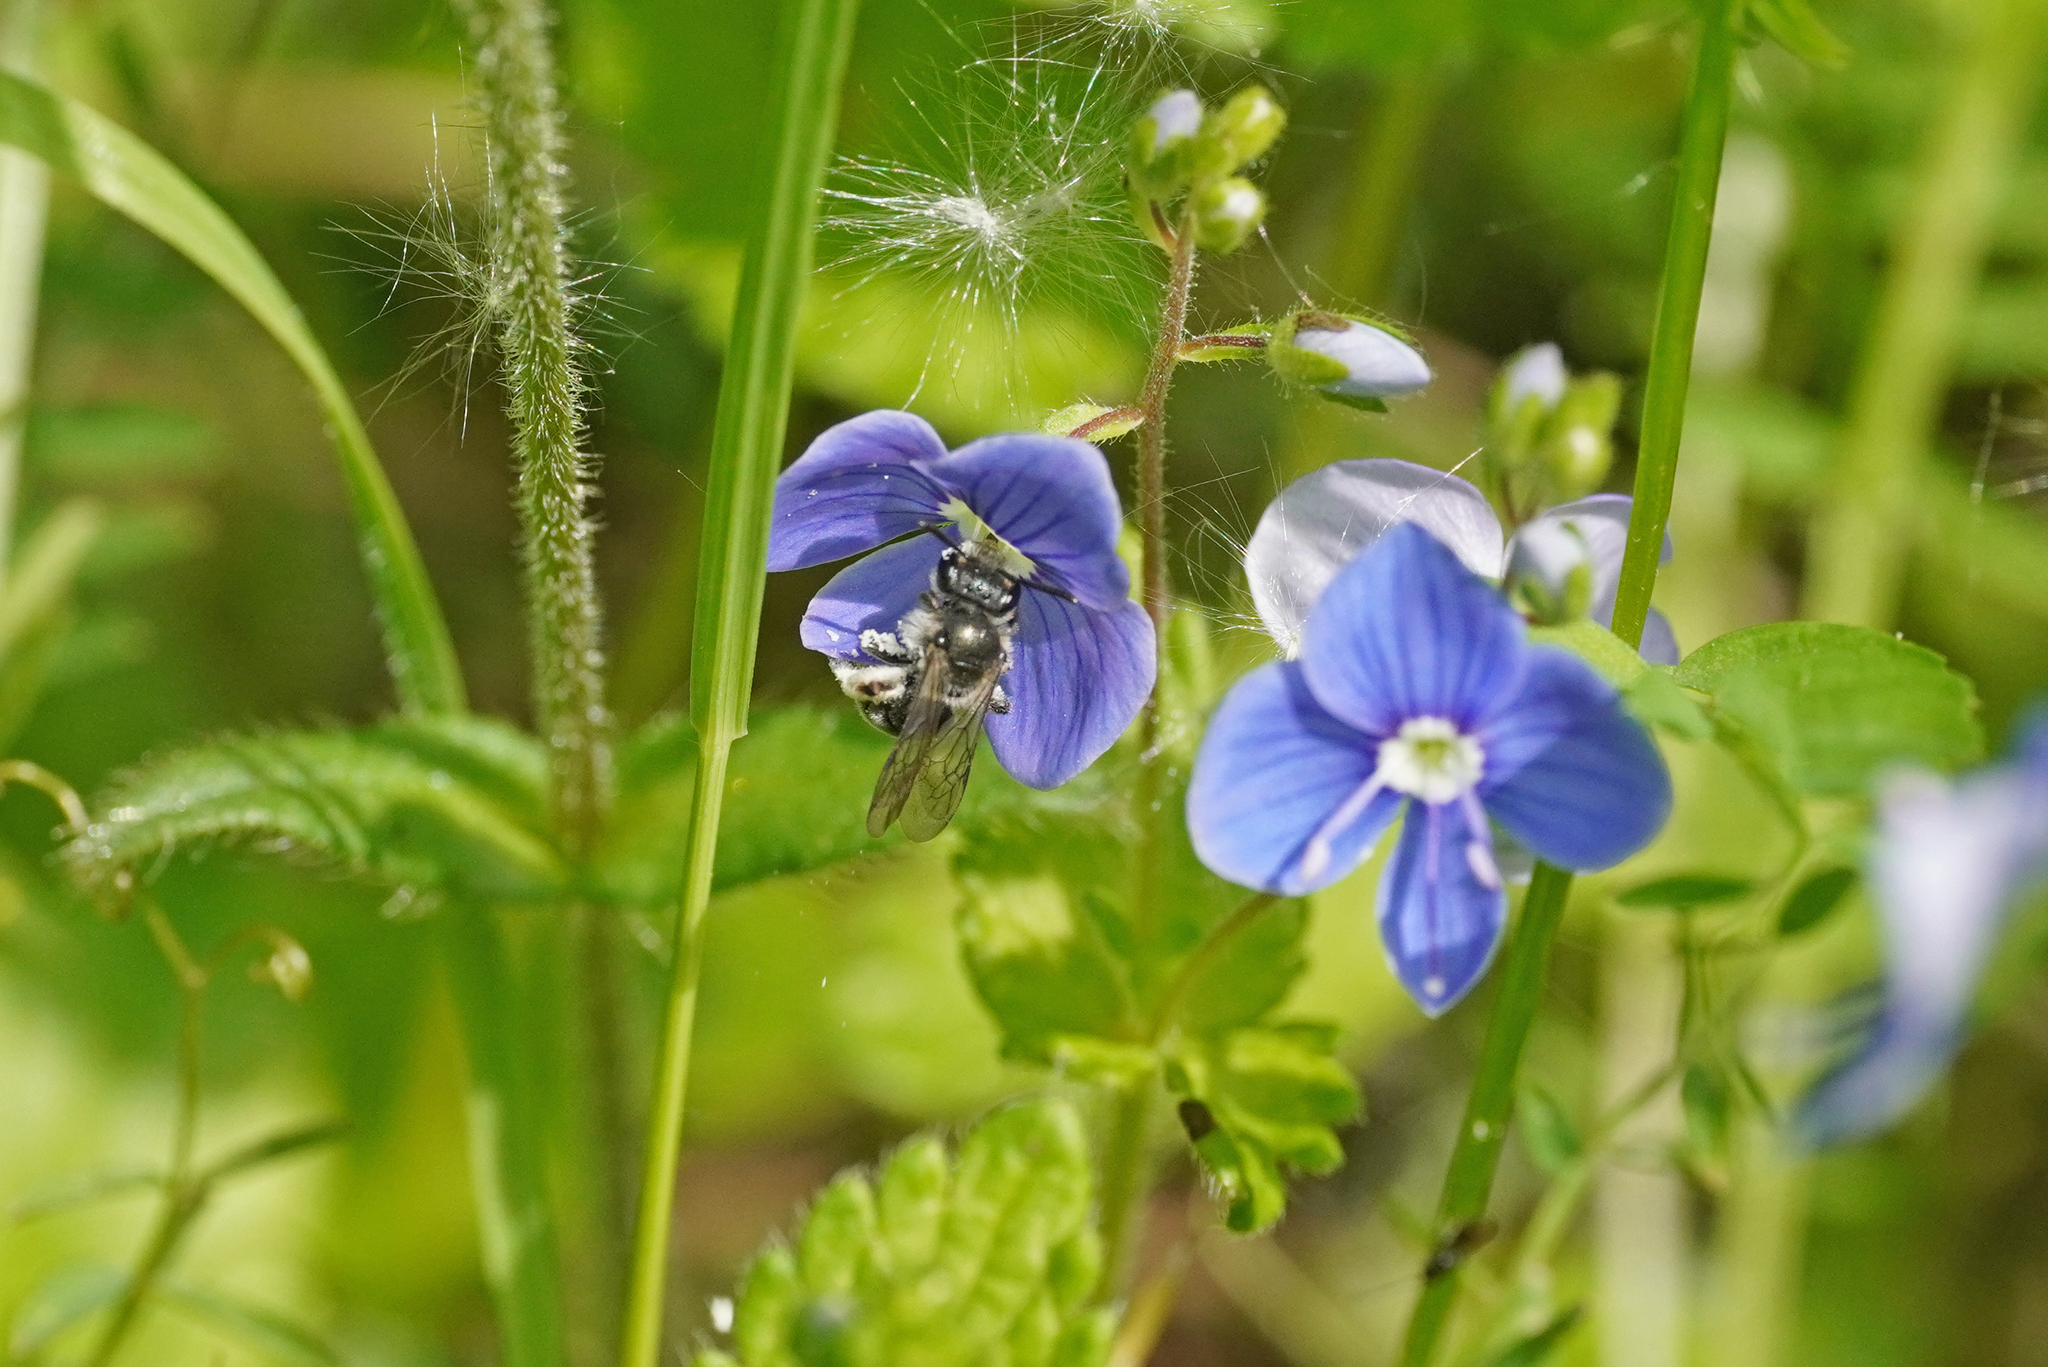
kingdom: Animalia
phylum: Arthropoda
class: Insecta
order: Hymenoptera
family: Andrenidae
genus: Andrena
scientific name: Andrena viridescens
